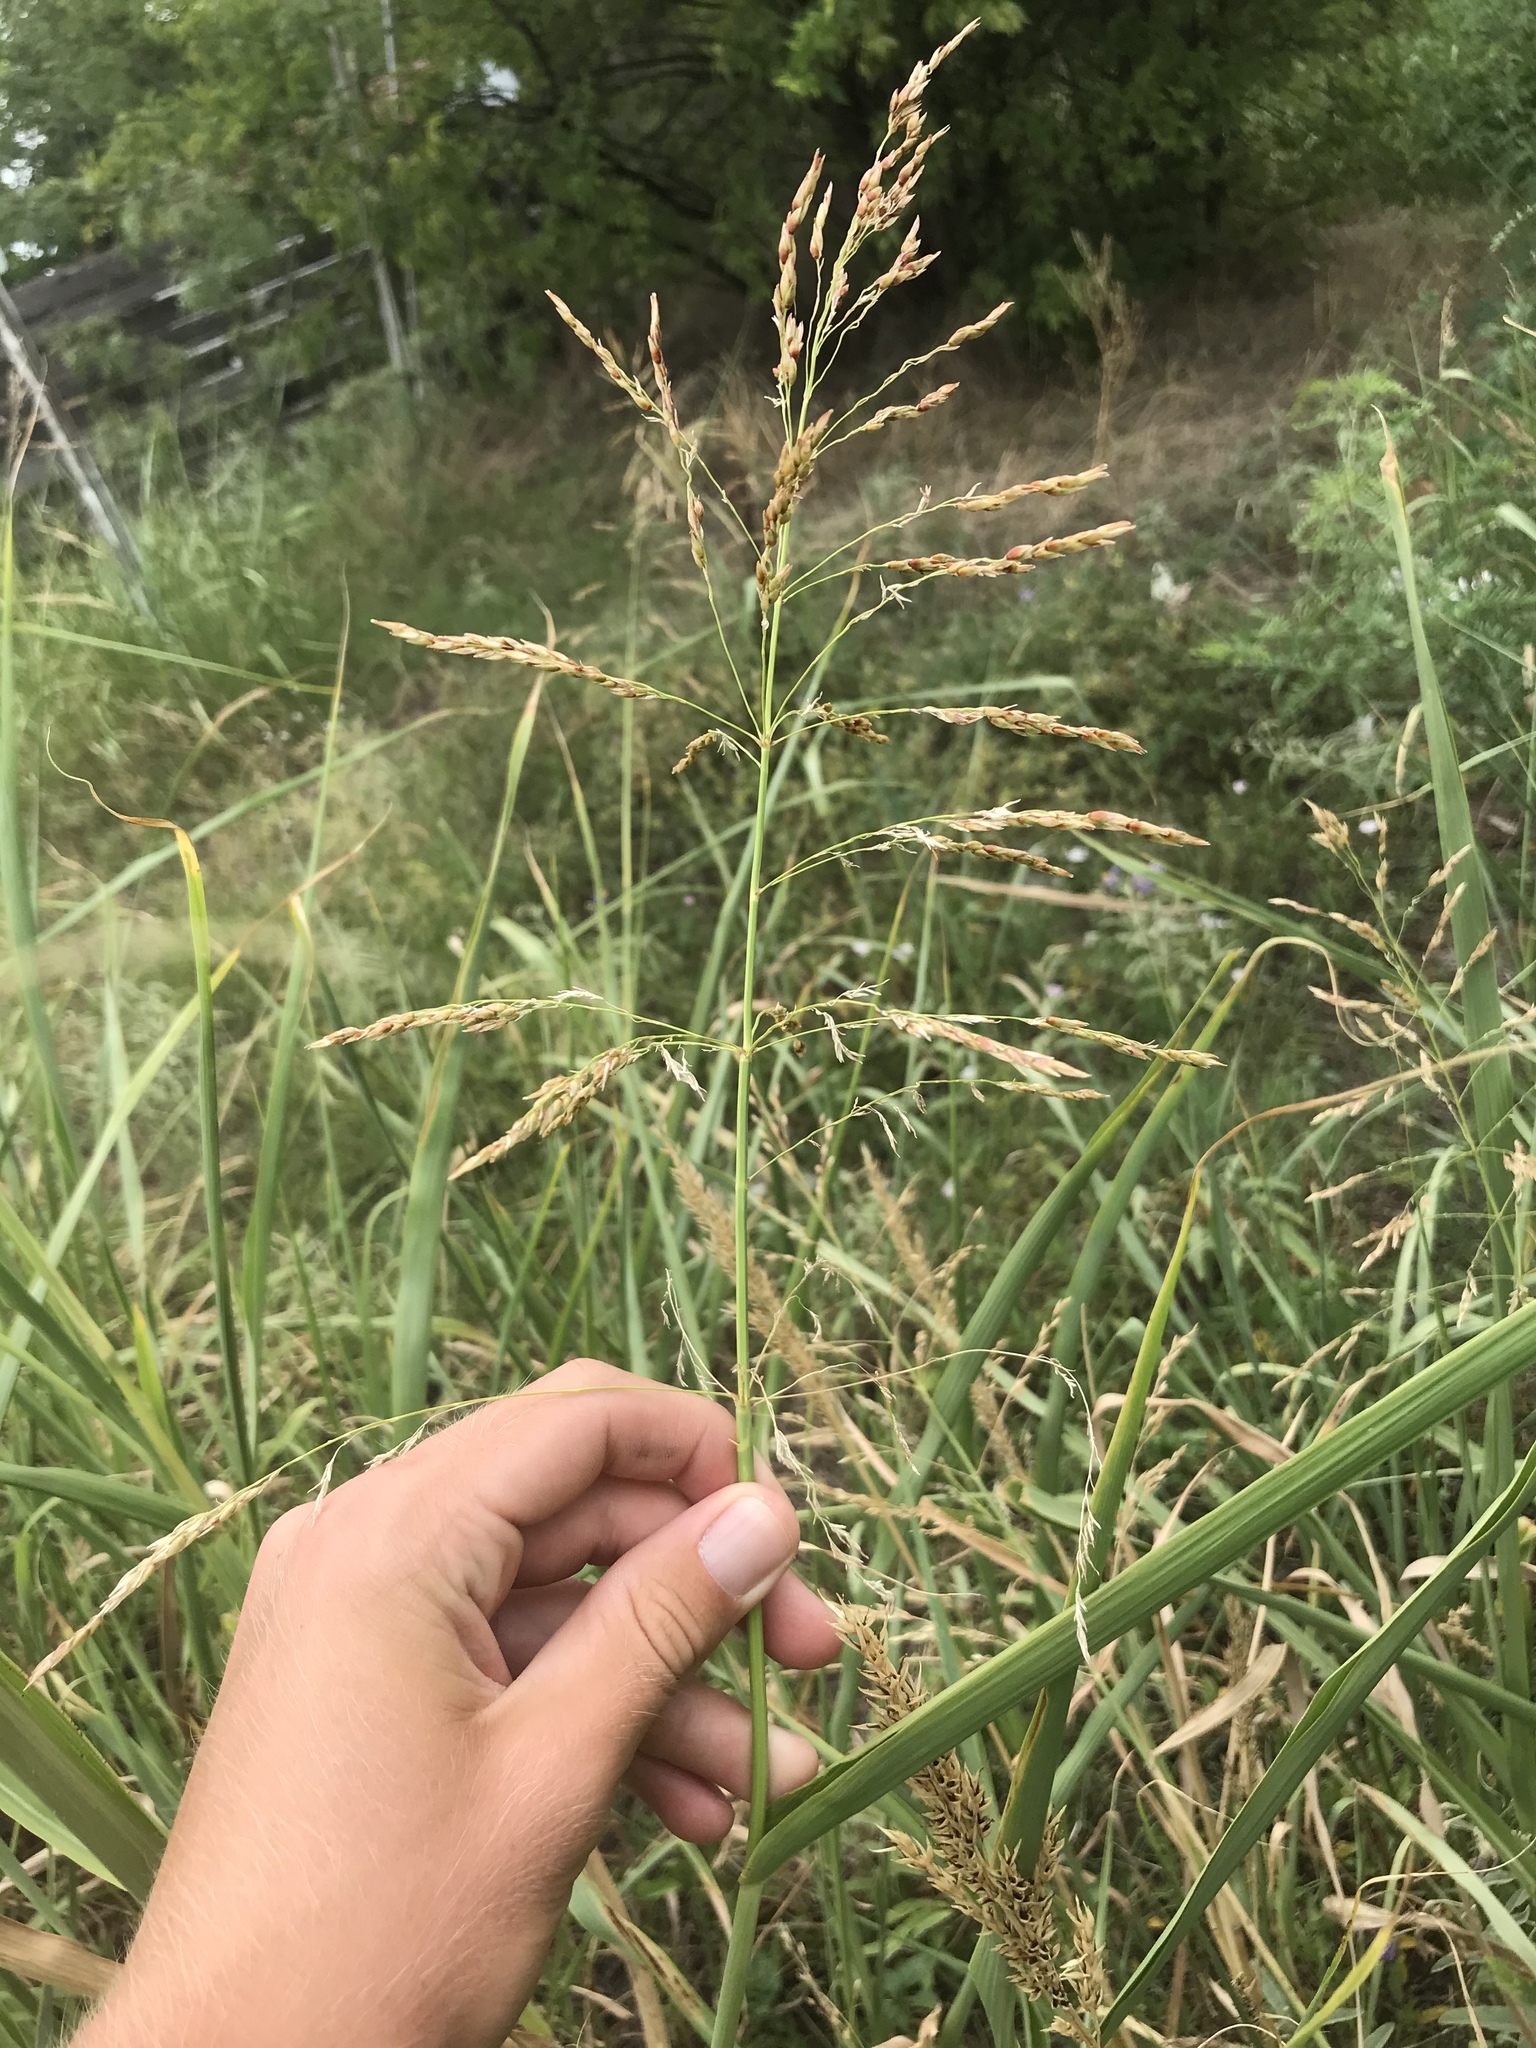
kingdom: Plantae
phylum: Tracheophyta
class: Liliopsida
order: Poales
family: Poaceae
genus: Sorghum
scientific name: Sorghum halepense
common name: Johnson-grass
